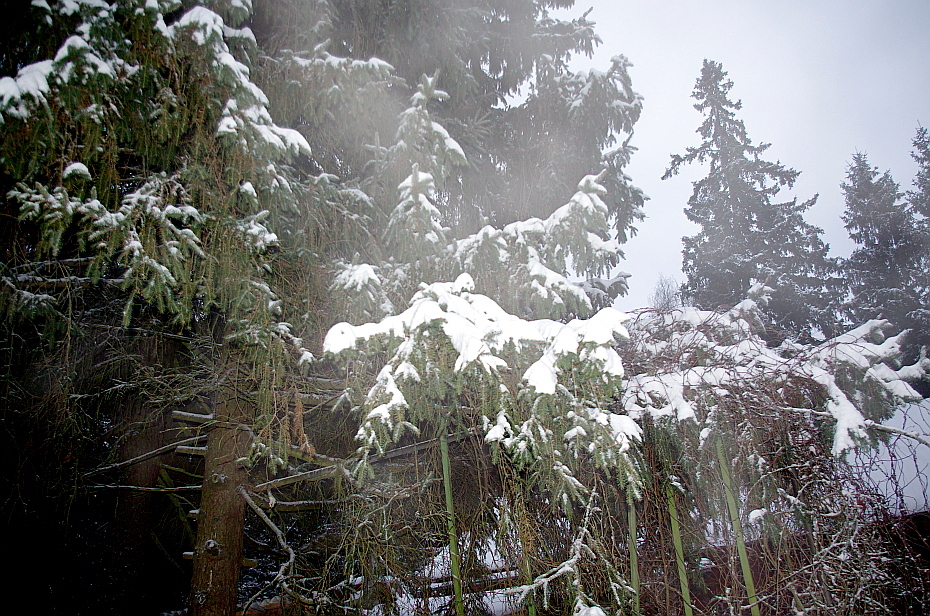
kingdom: Plantae
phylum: Tracheophyta
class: Pinopsida
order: Pinales
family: Pinaceae
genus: Picea
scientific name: Picea abies
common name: Norway spruce
